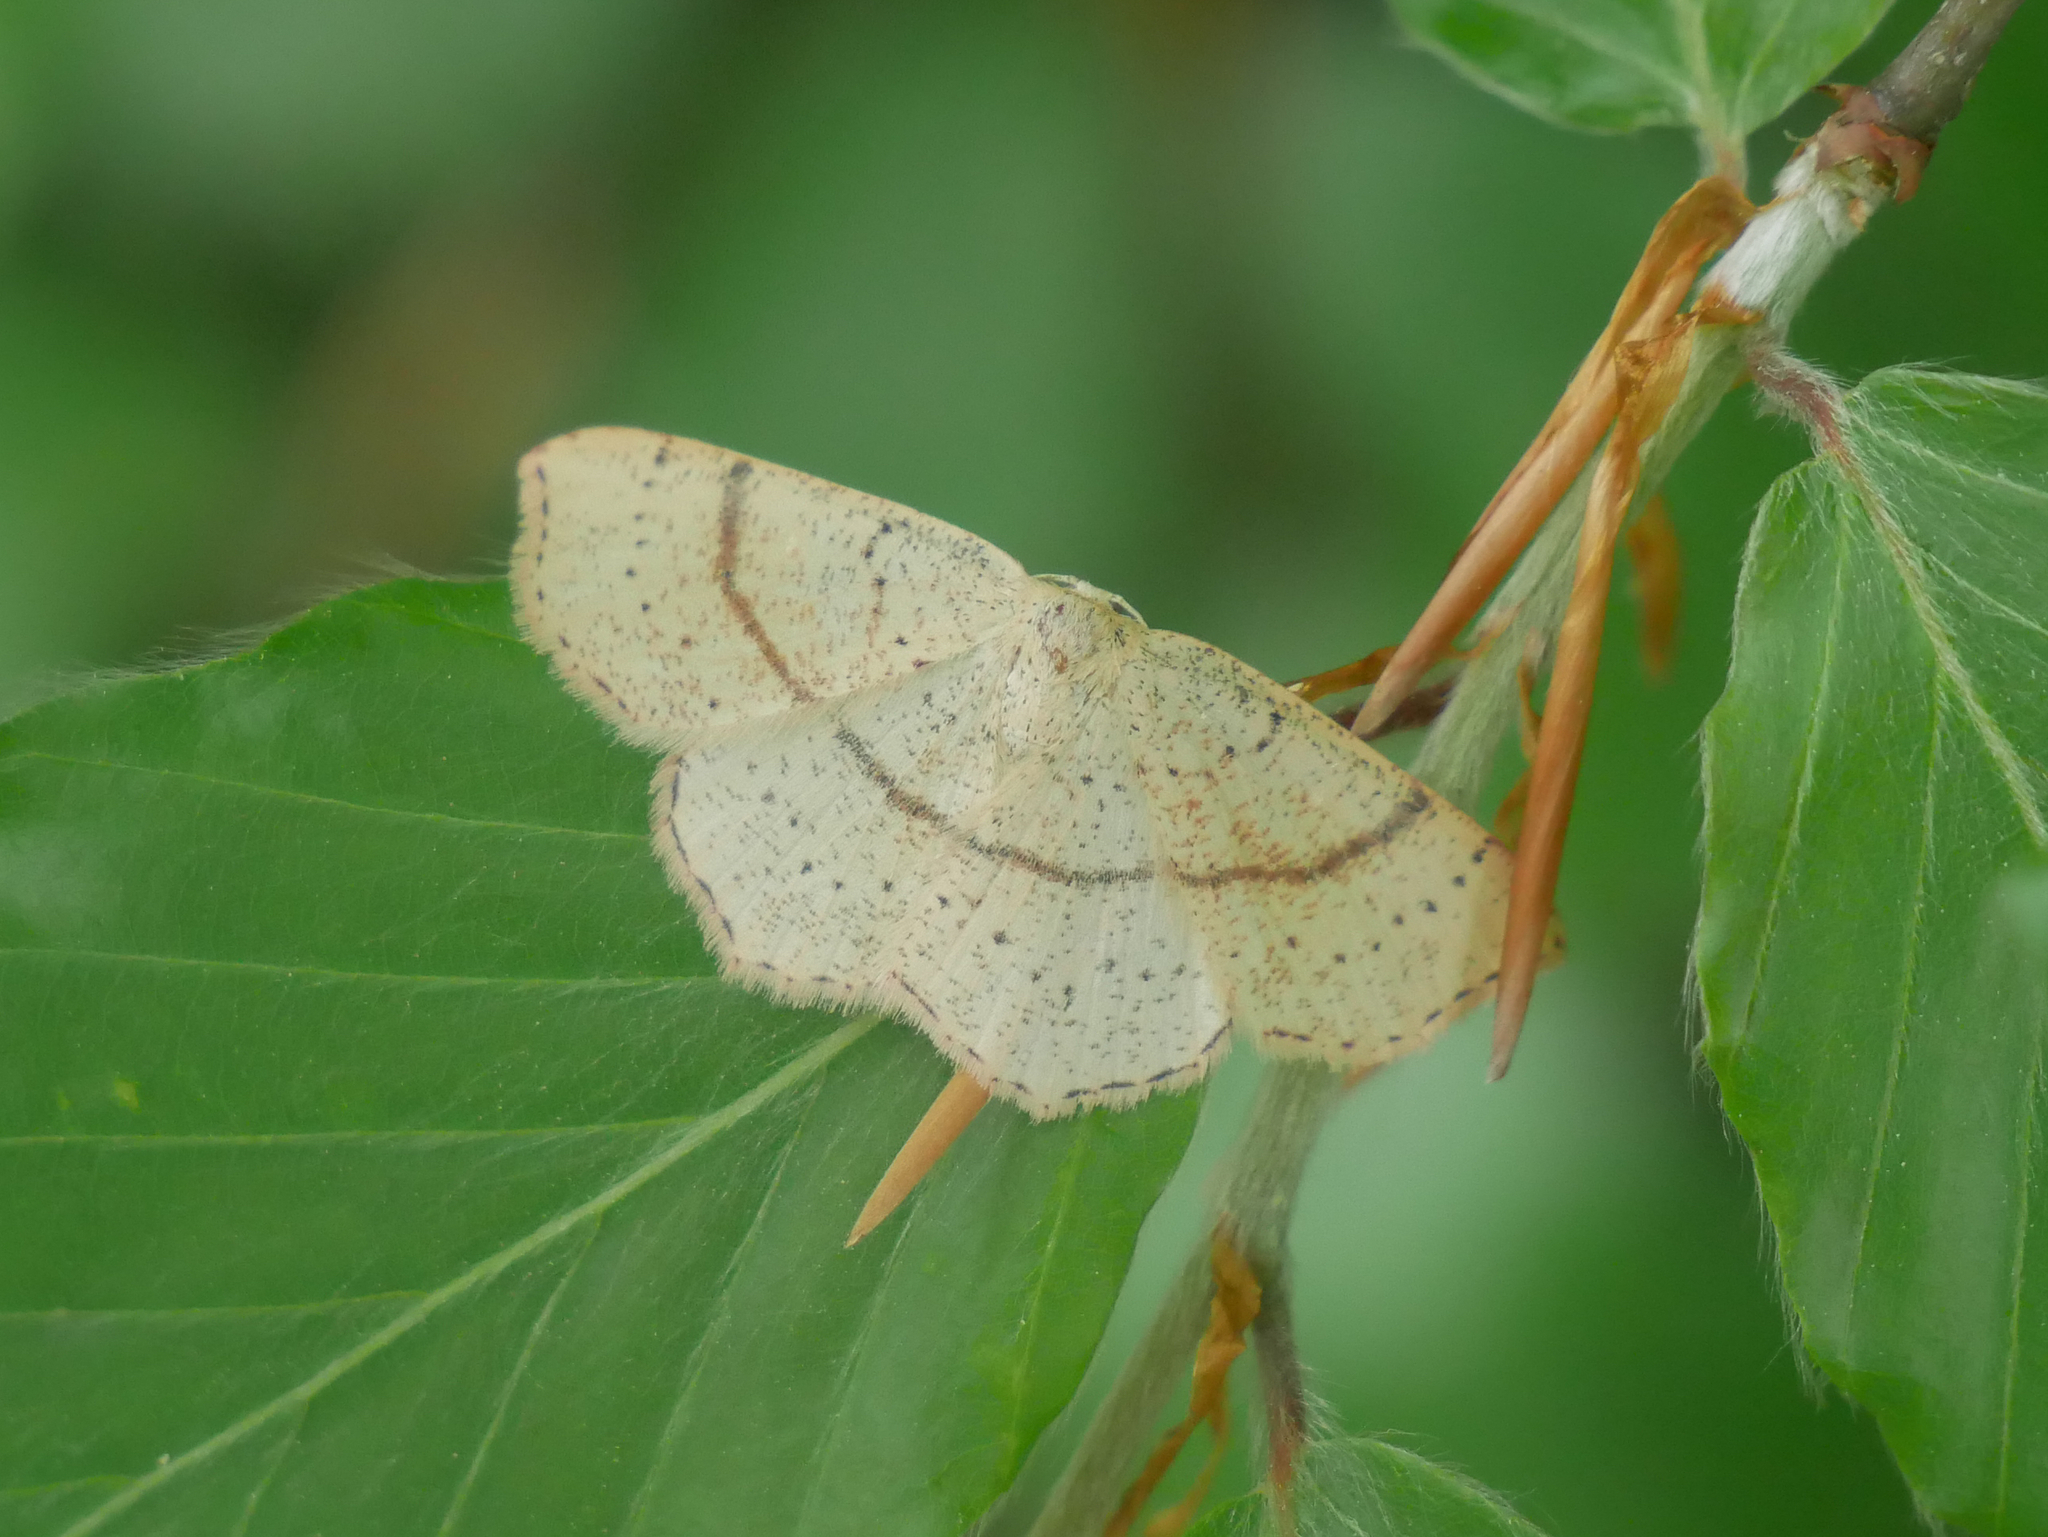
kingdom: Animalia
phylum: Arthropoda
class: Insecta
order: Lepidoptera
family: Geometridae
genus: Cyclophora
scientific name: Cyclophora punctaria
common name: Maiden's blush
